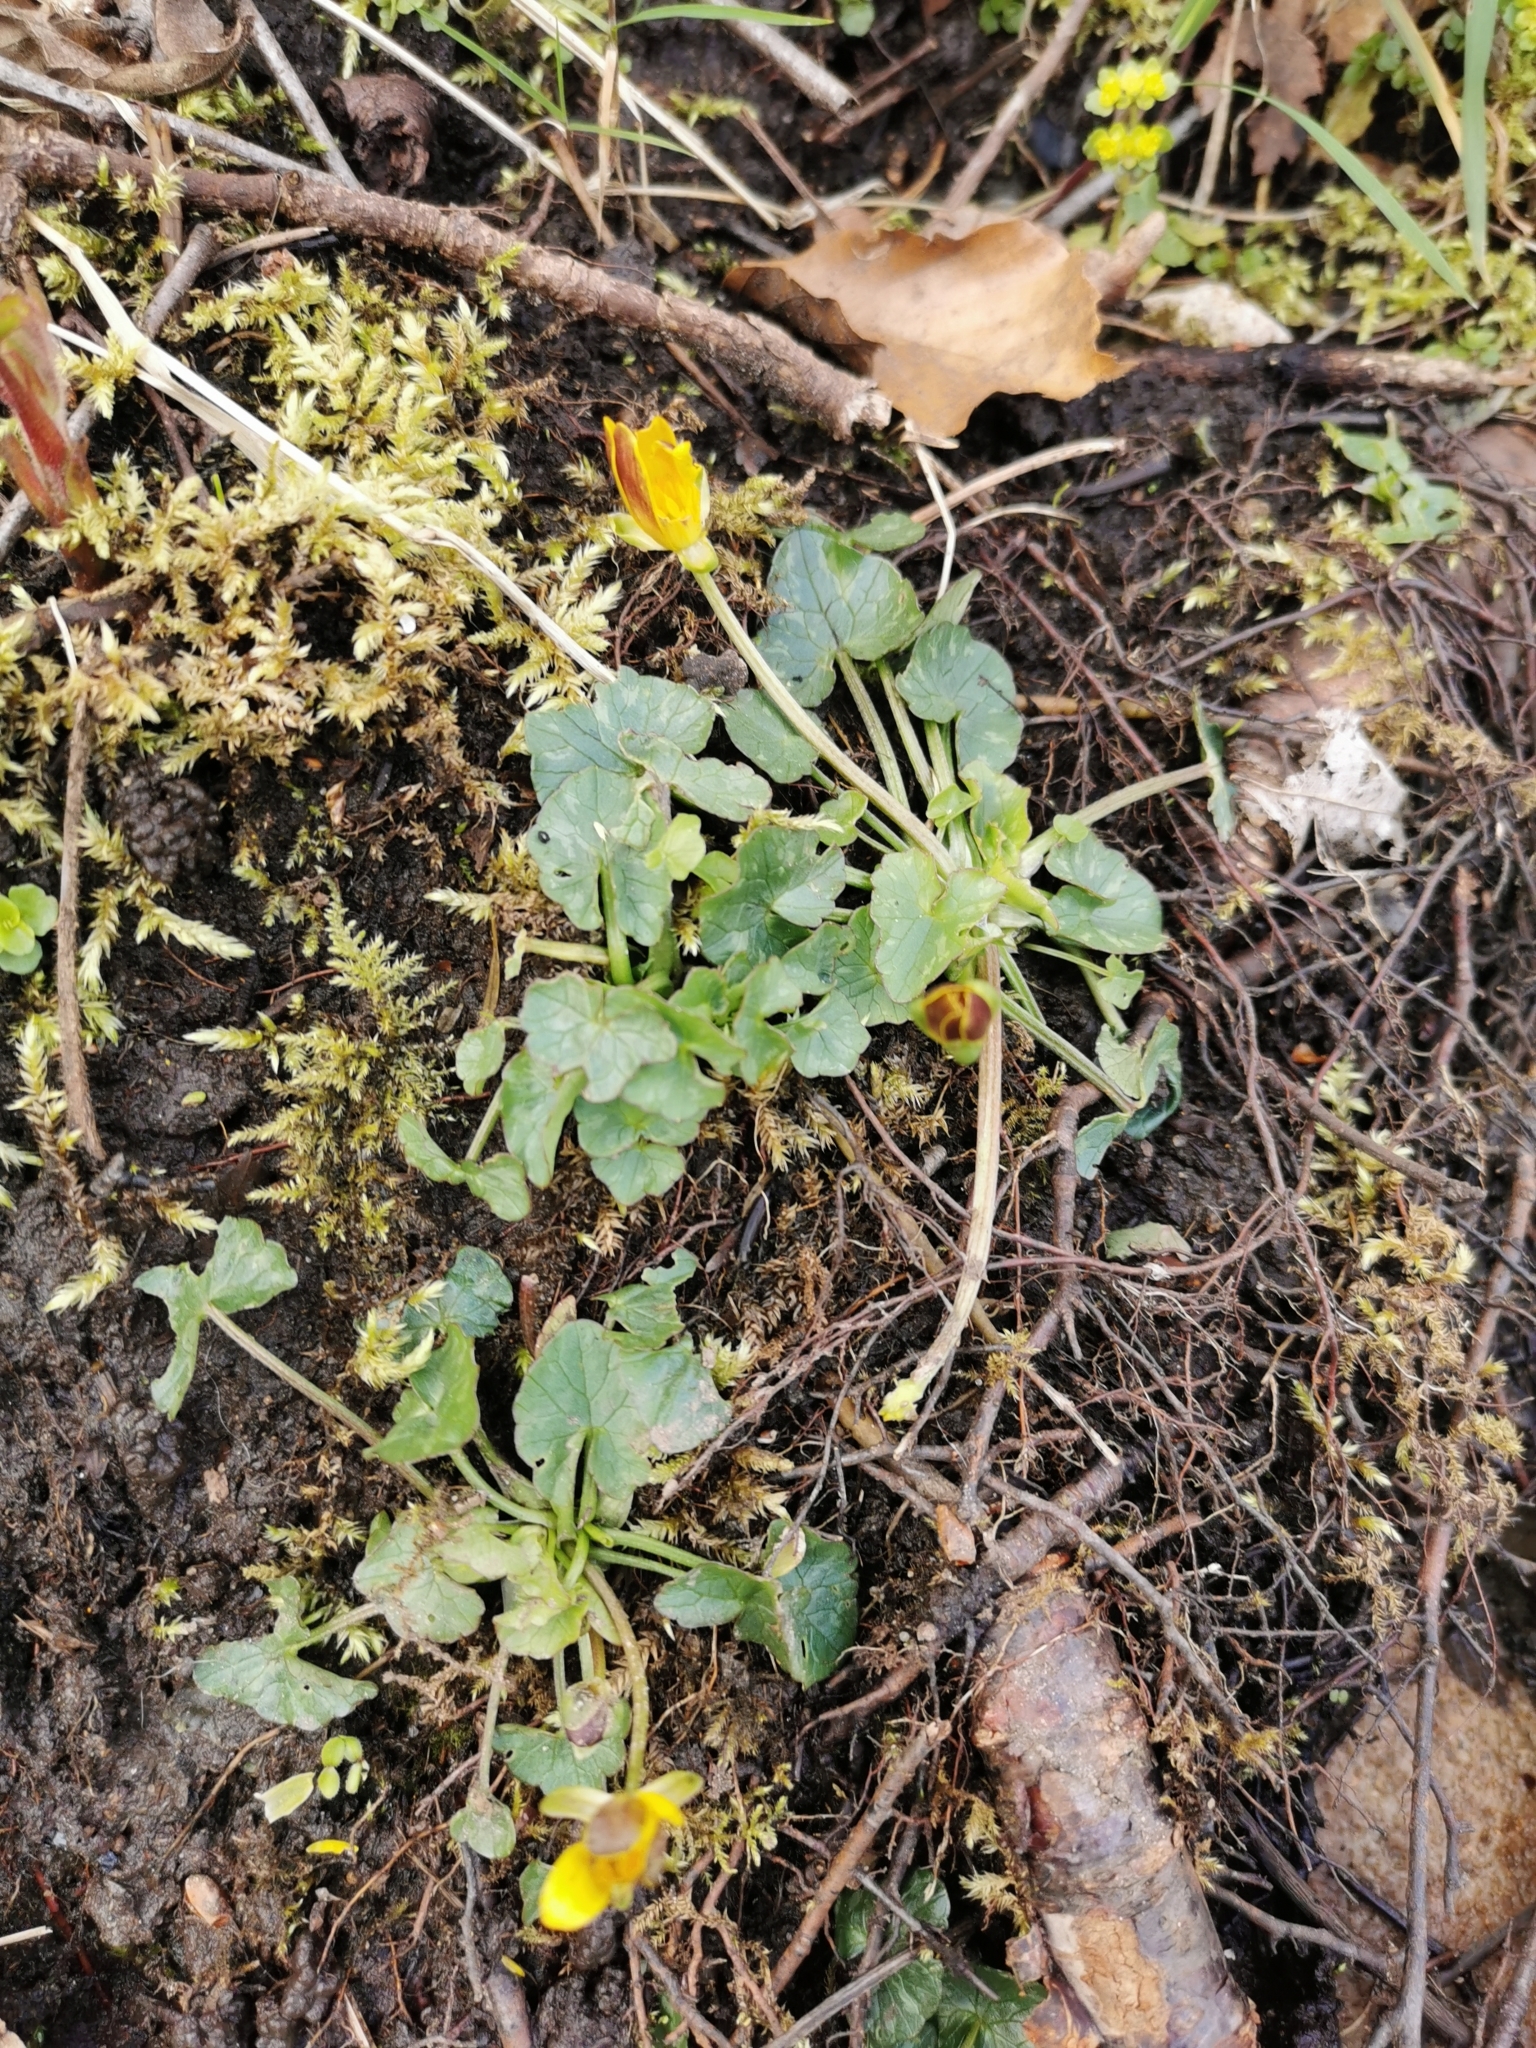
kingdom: Plantae
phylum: Tracheophyta
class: Magnoliopsida
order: Ranunculales
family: Ranunculaceae
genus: Ficaria
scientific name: Ficaria verna
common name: Lesser celandine
